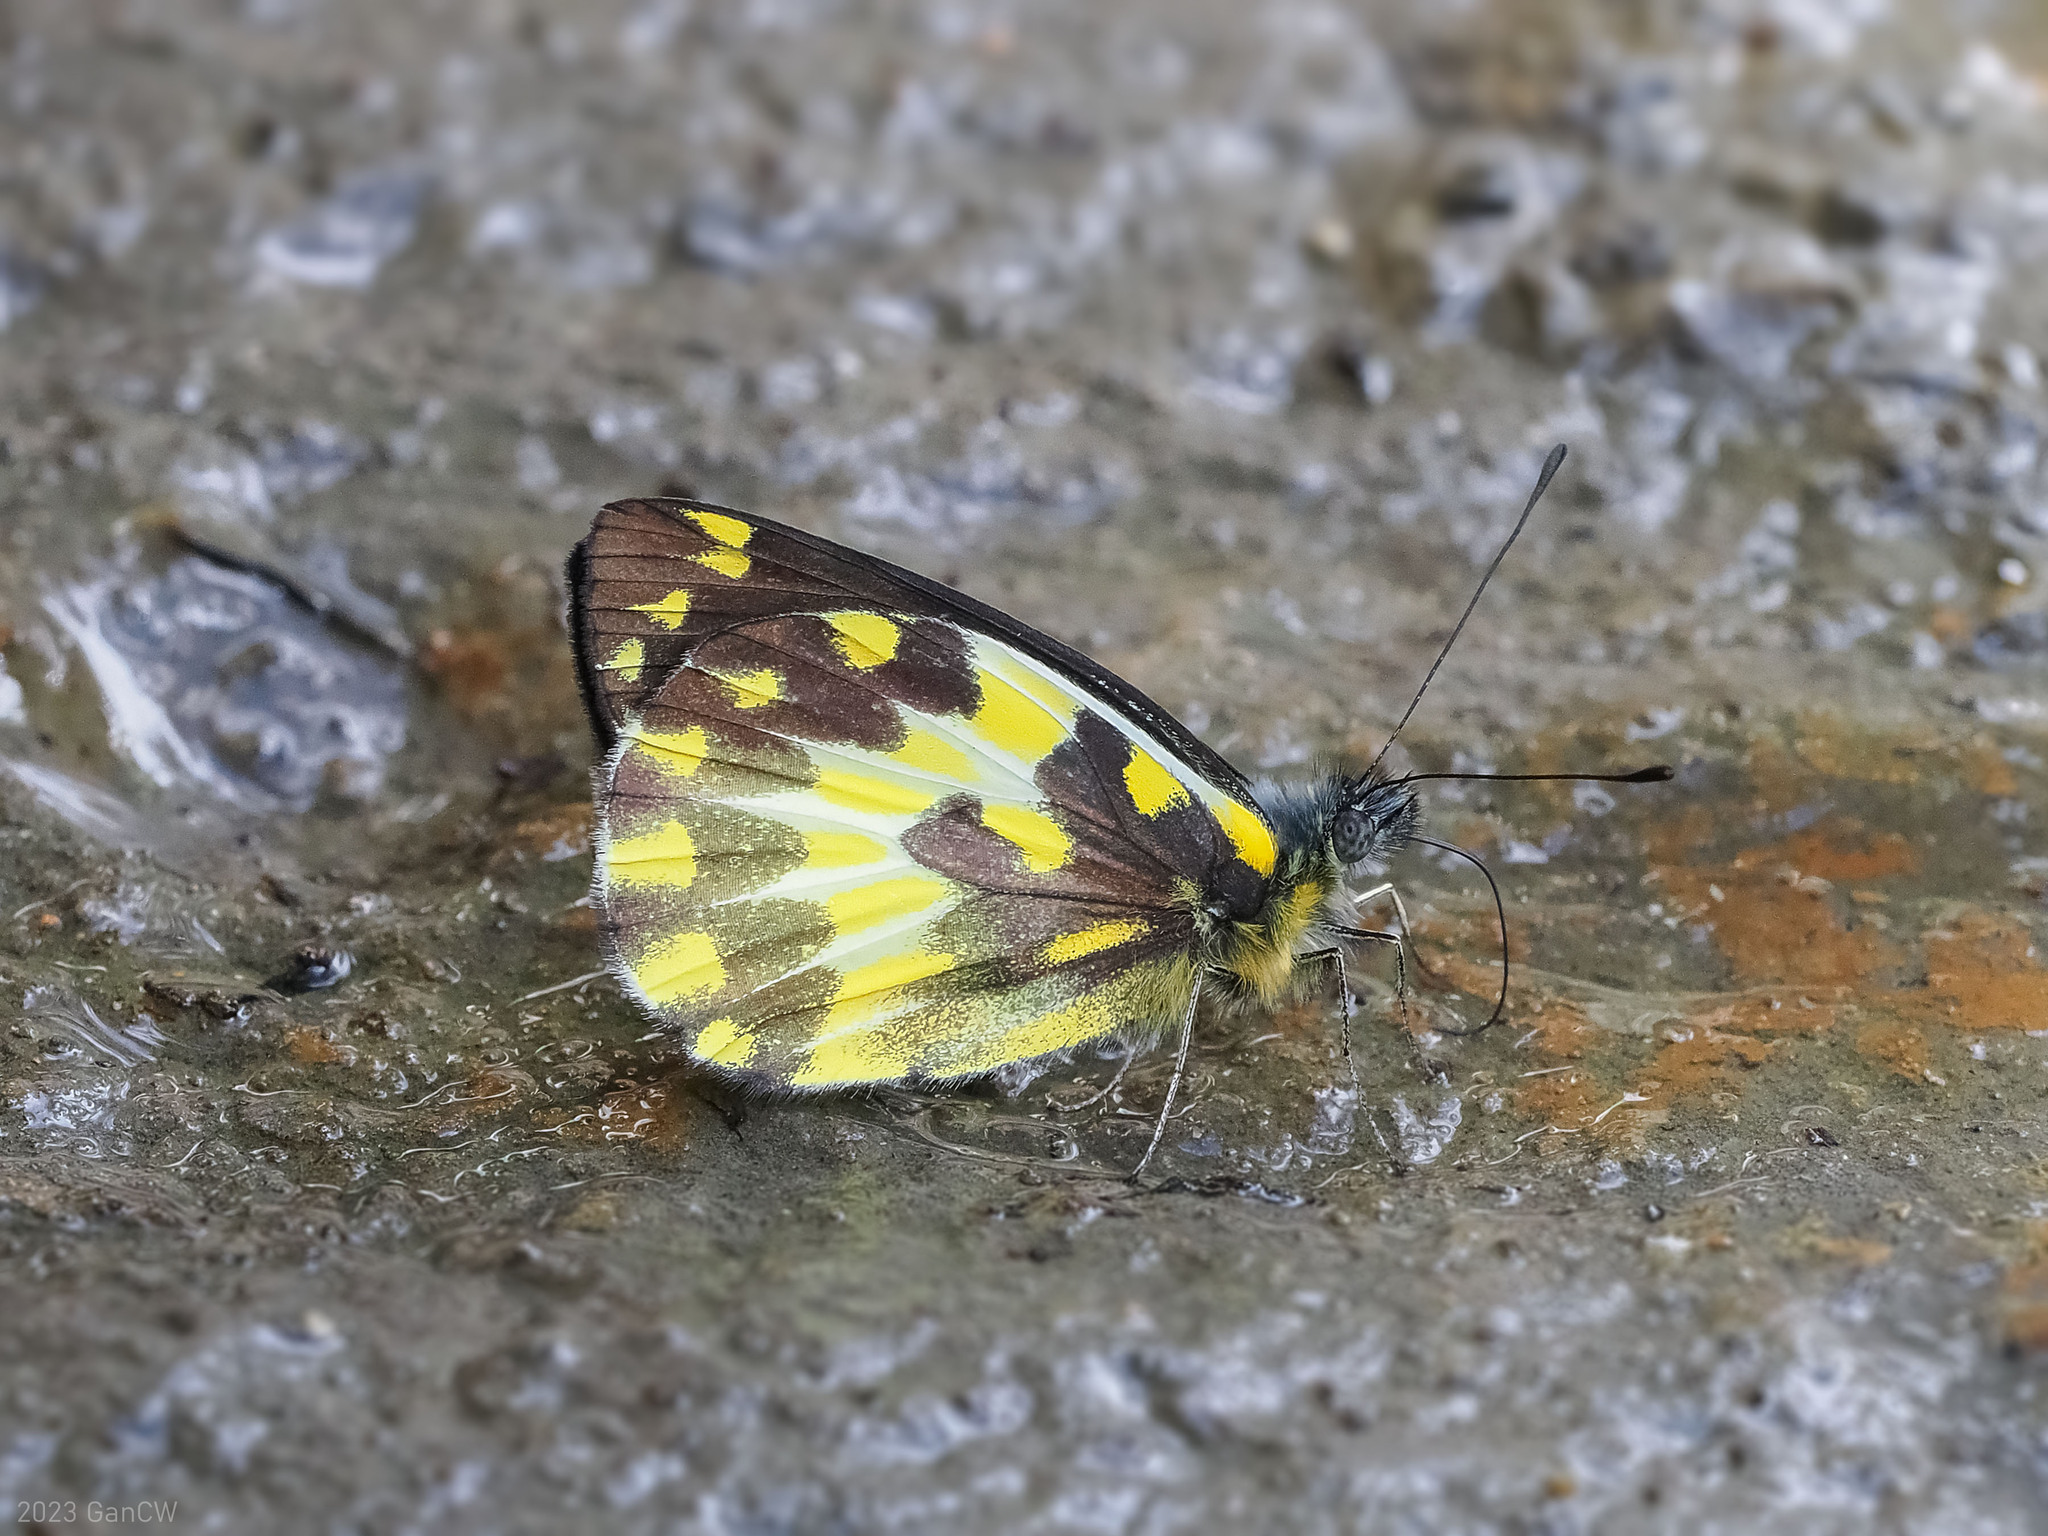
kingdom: Animalia
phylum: Arthropoda
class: Insecta
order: Lepidoptera
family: Pieridae
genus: Delias
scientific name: Delias pheres
